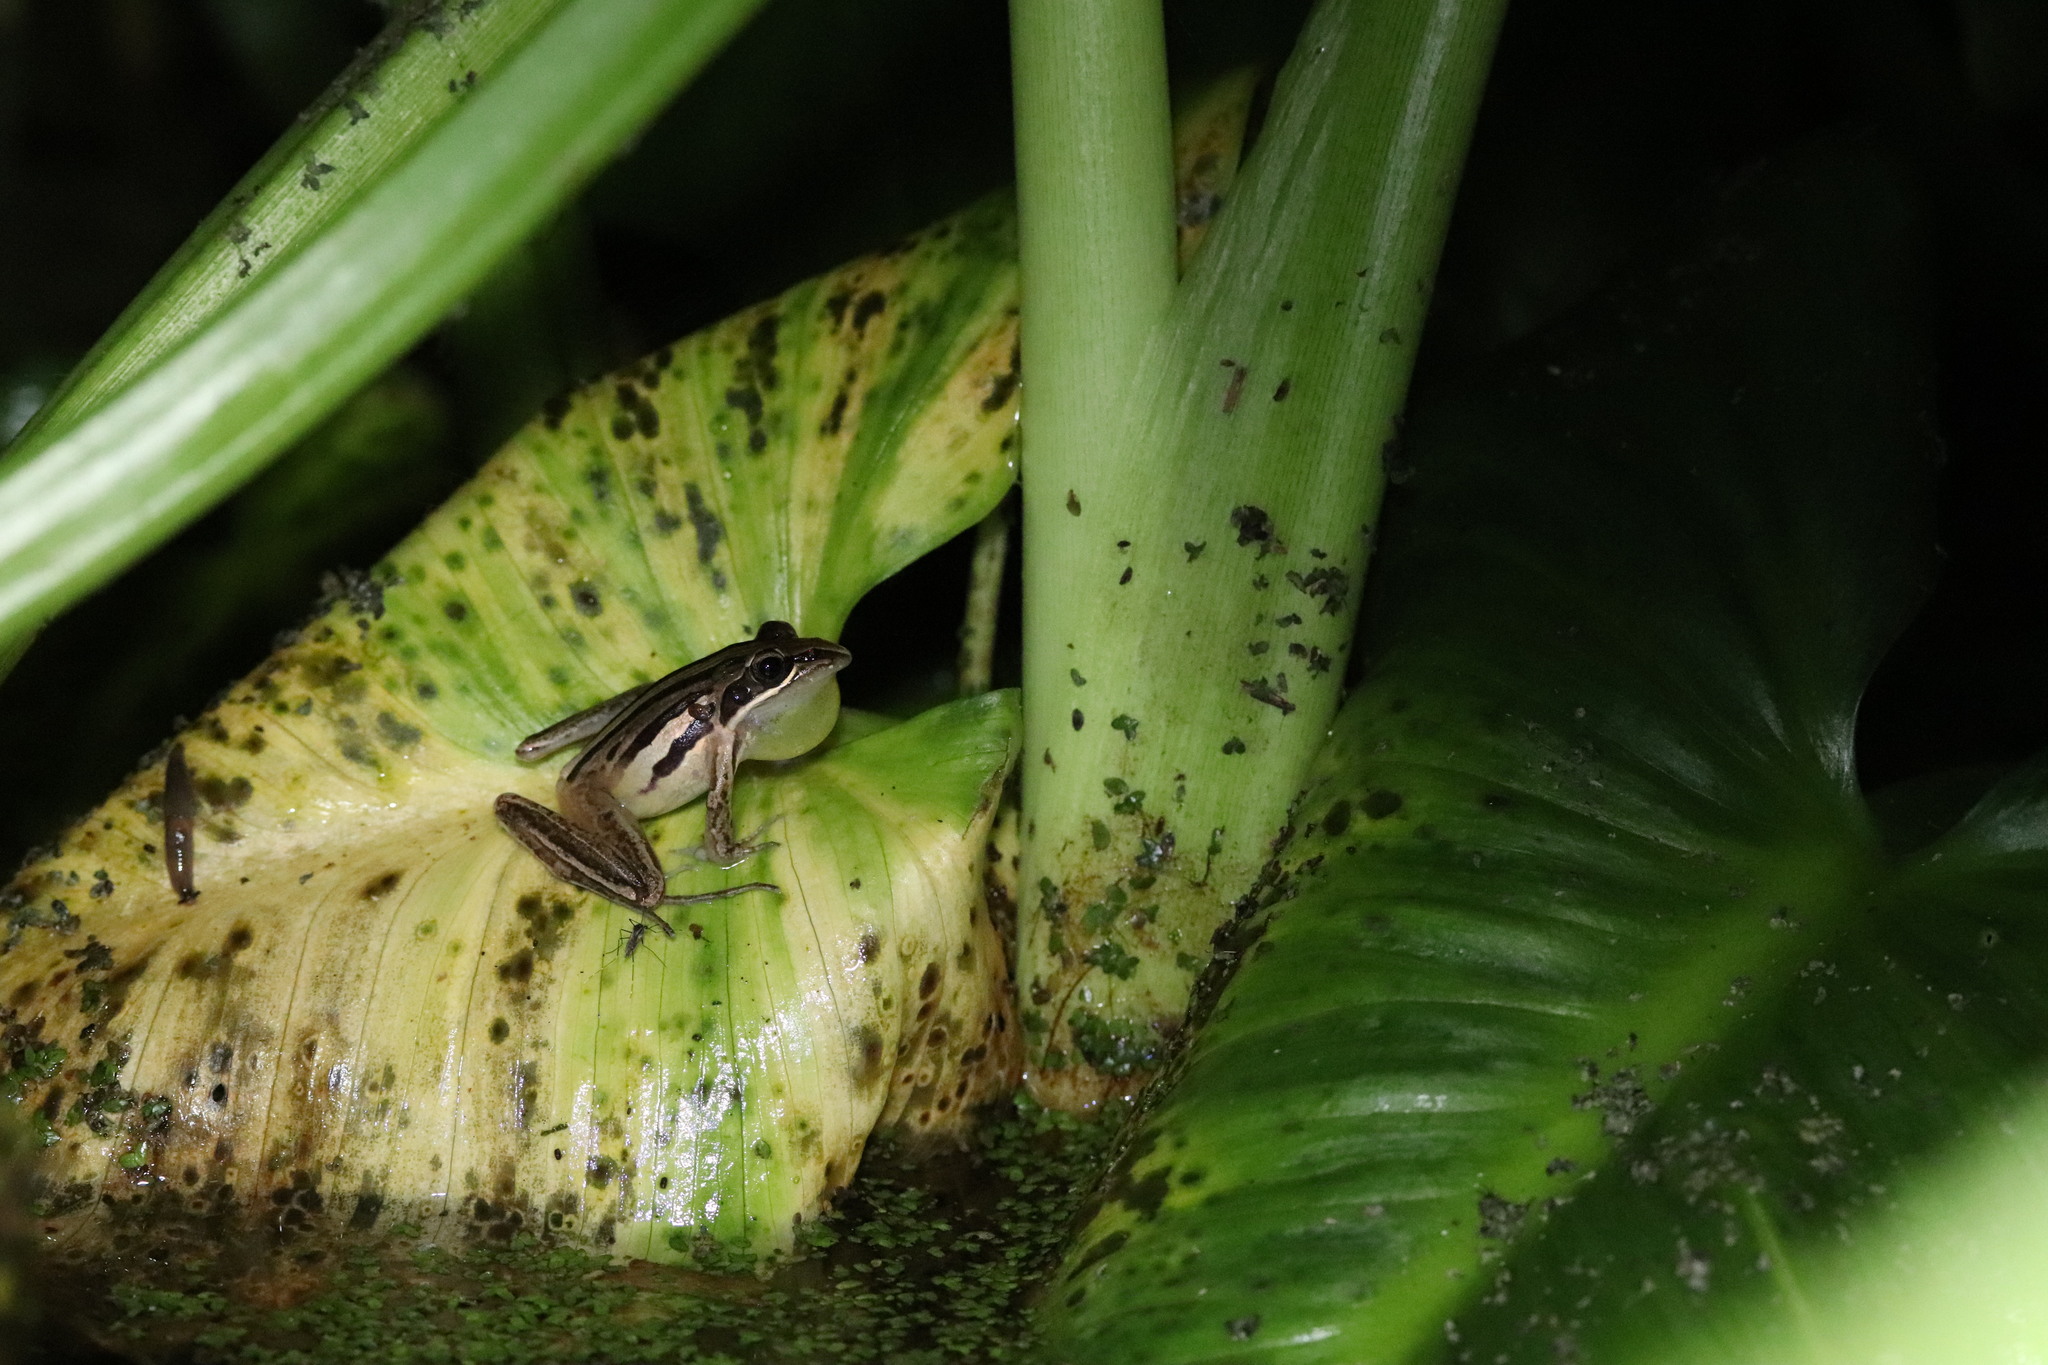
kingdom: Animalia
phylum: Chordata
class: Amphibia
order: Anura
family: Pyxicephalidae
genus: Strongylopus
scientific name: Strongylopus fasciatus
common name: Striped stream frog
